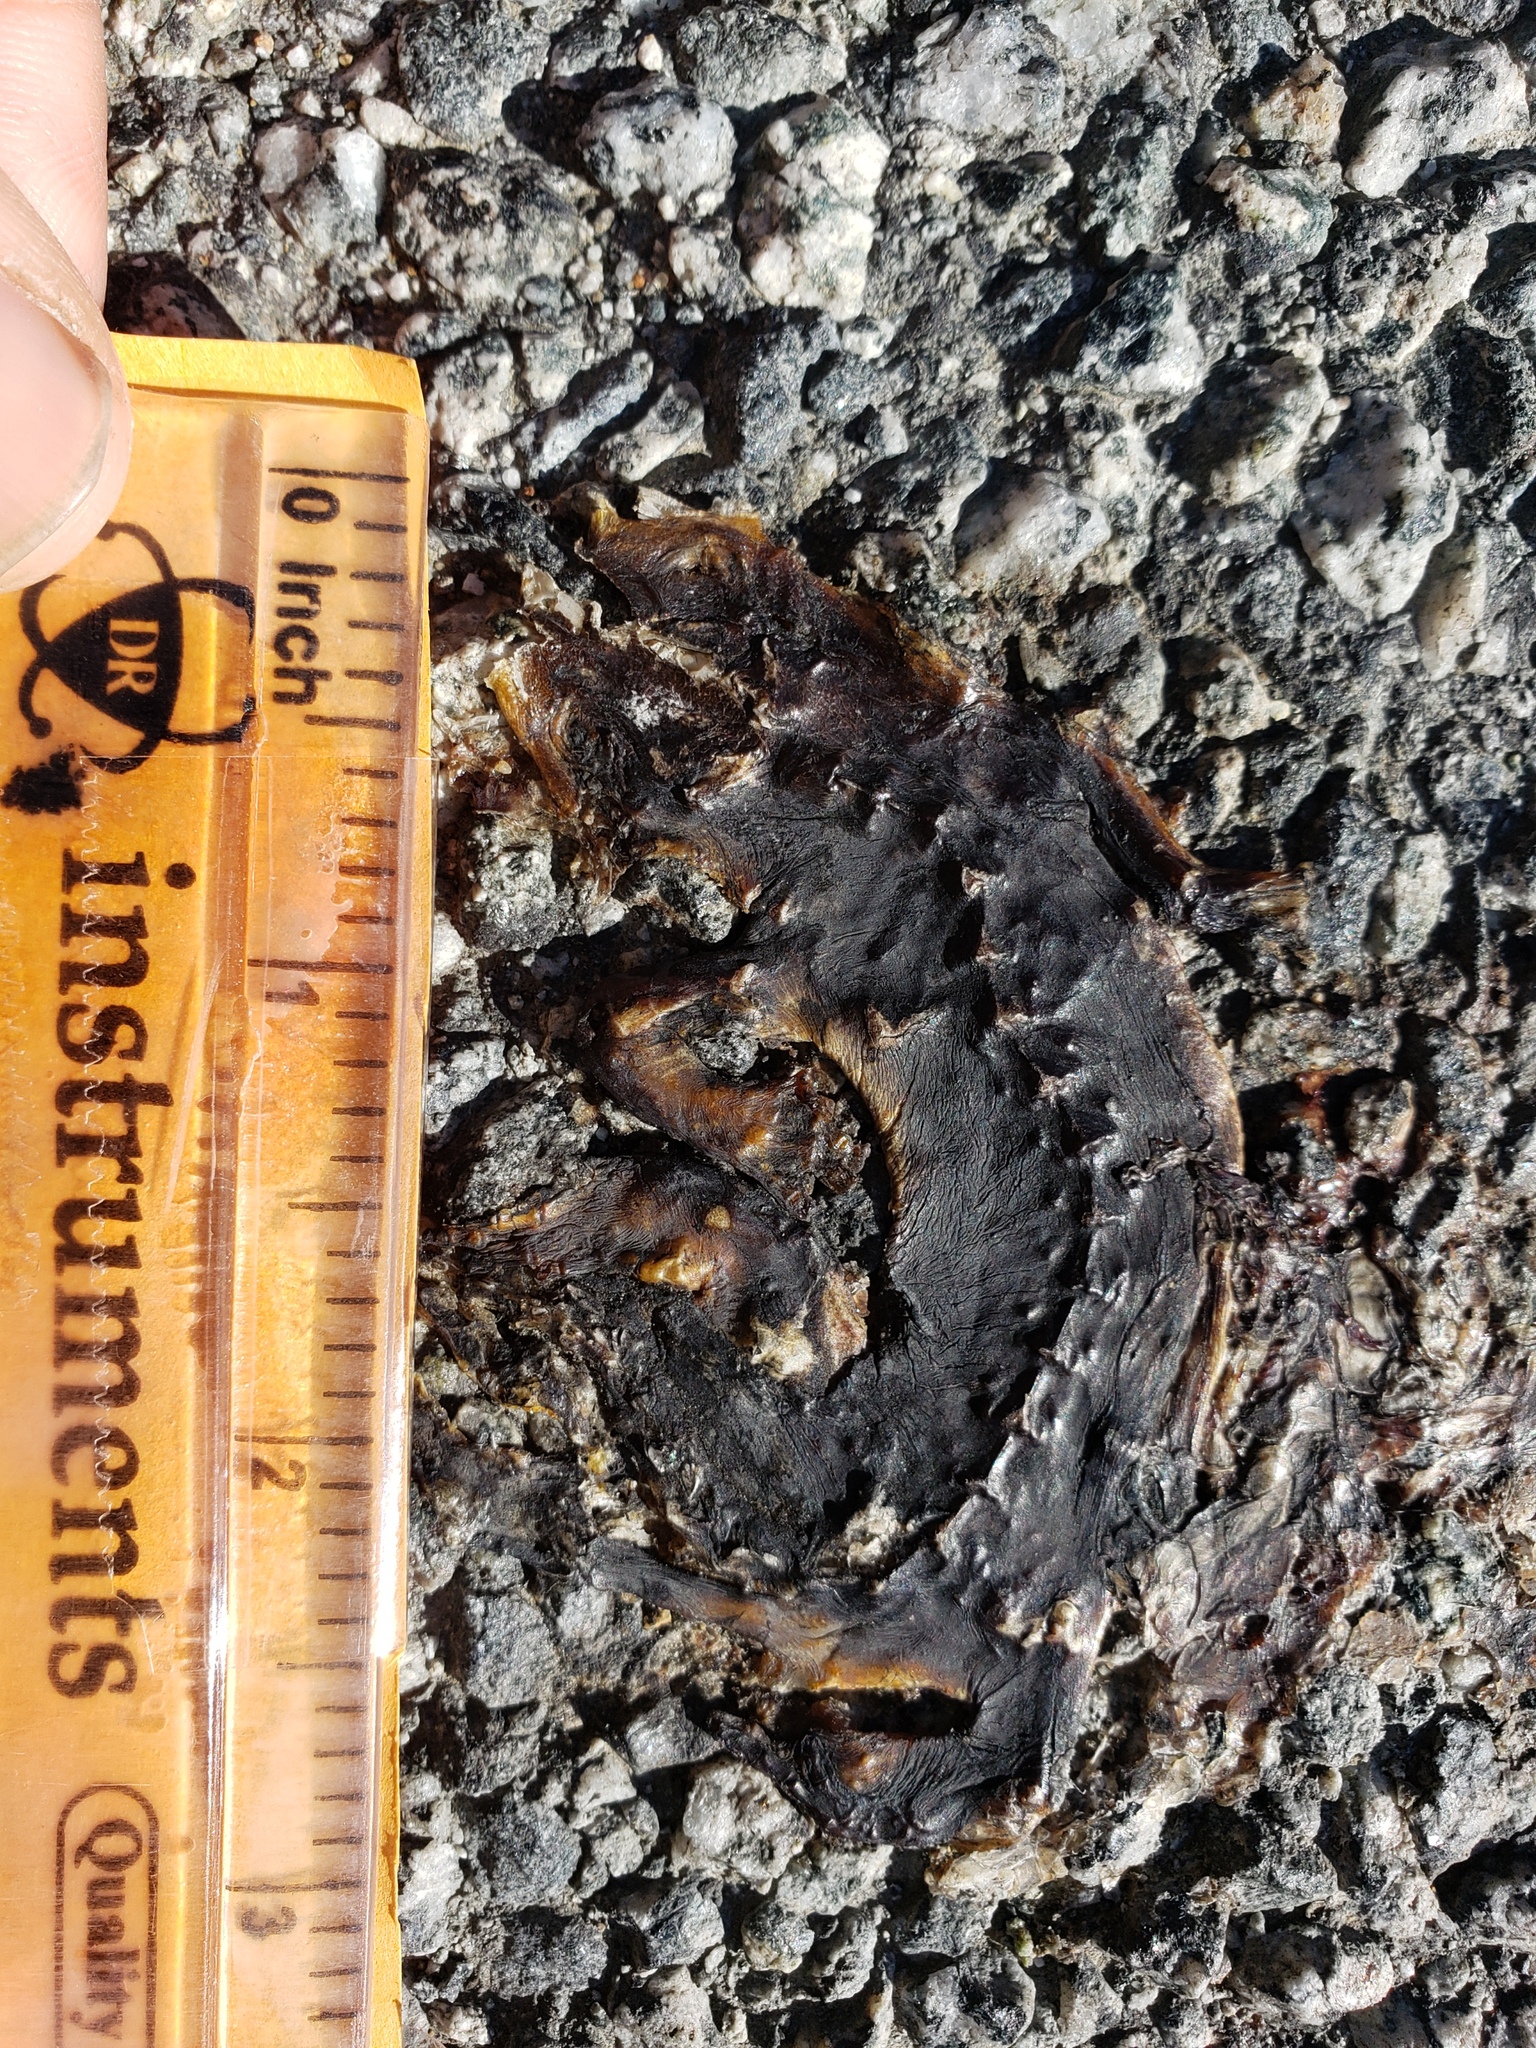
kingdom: Animalia
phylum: Chordata
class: Amphibia
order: Caudata
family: Salamandridae
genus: Taricha
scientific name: Taricha
